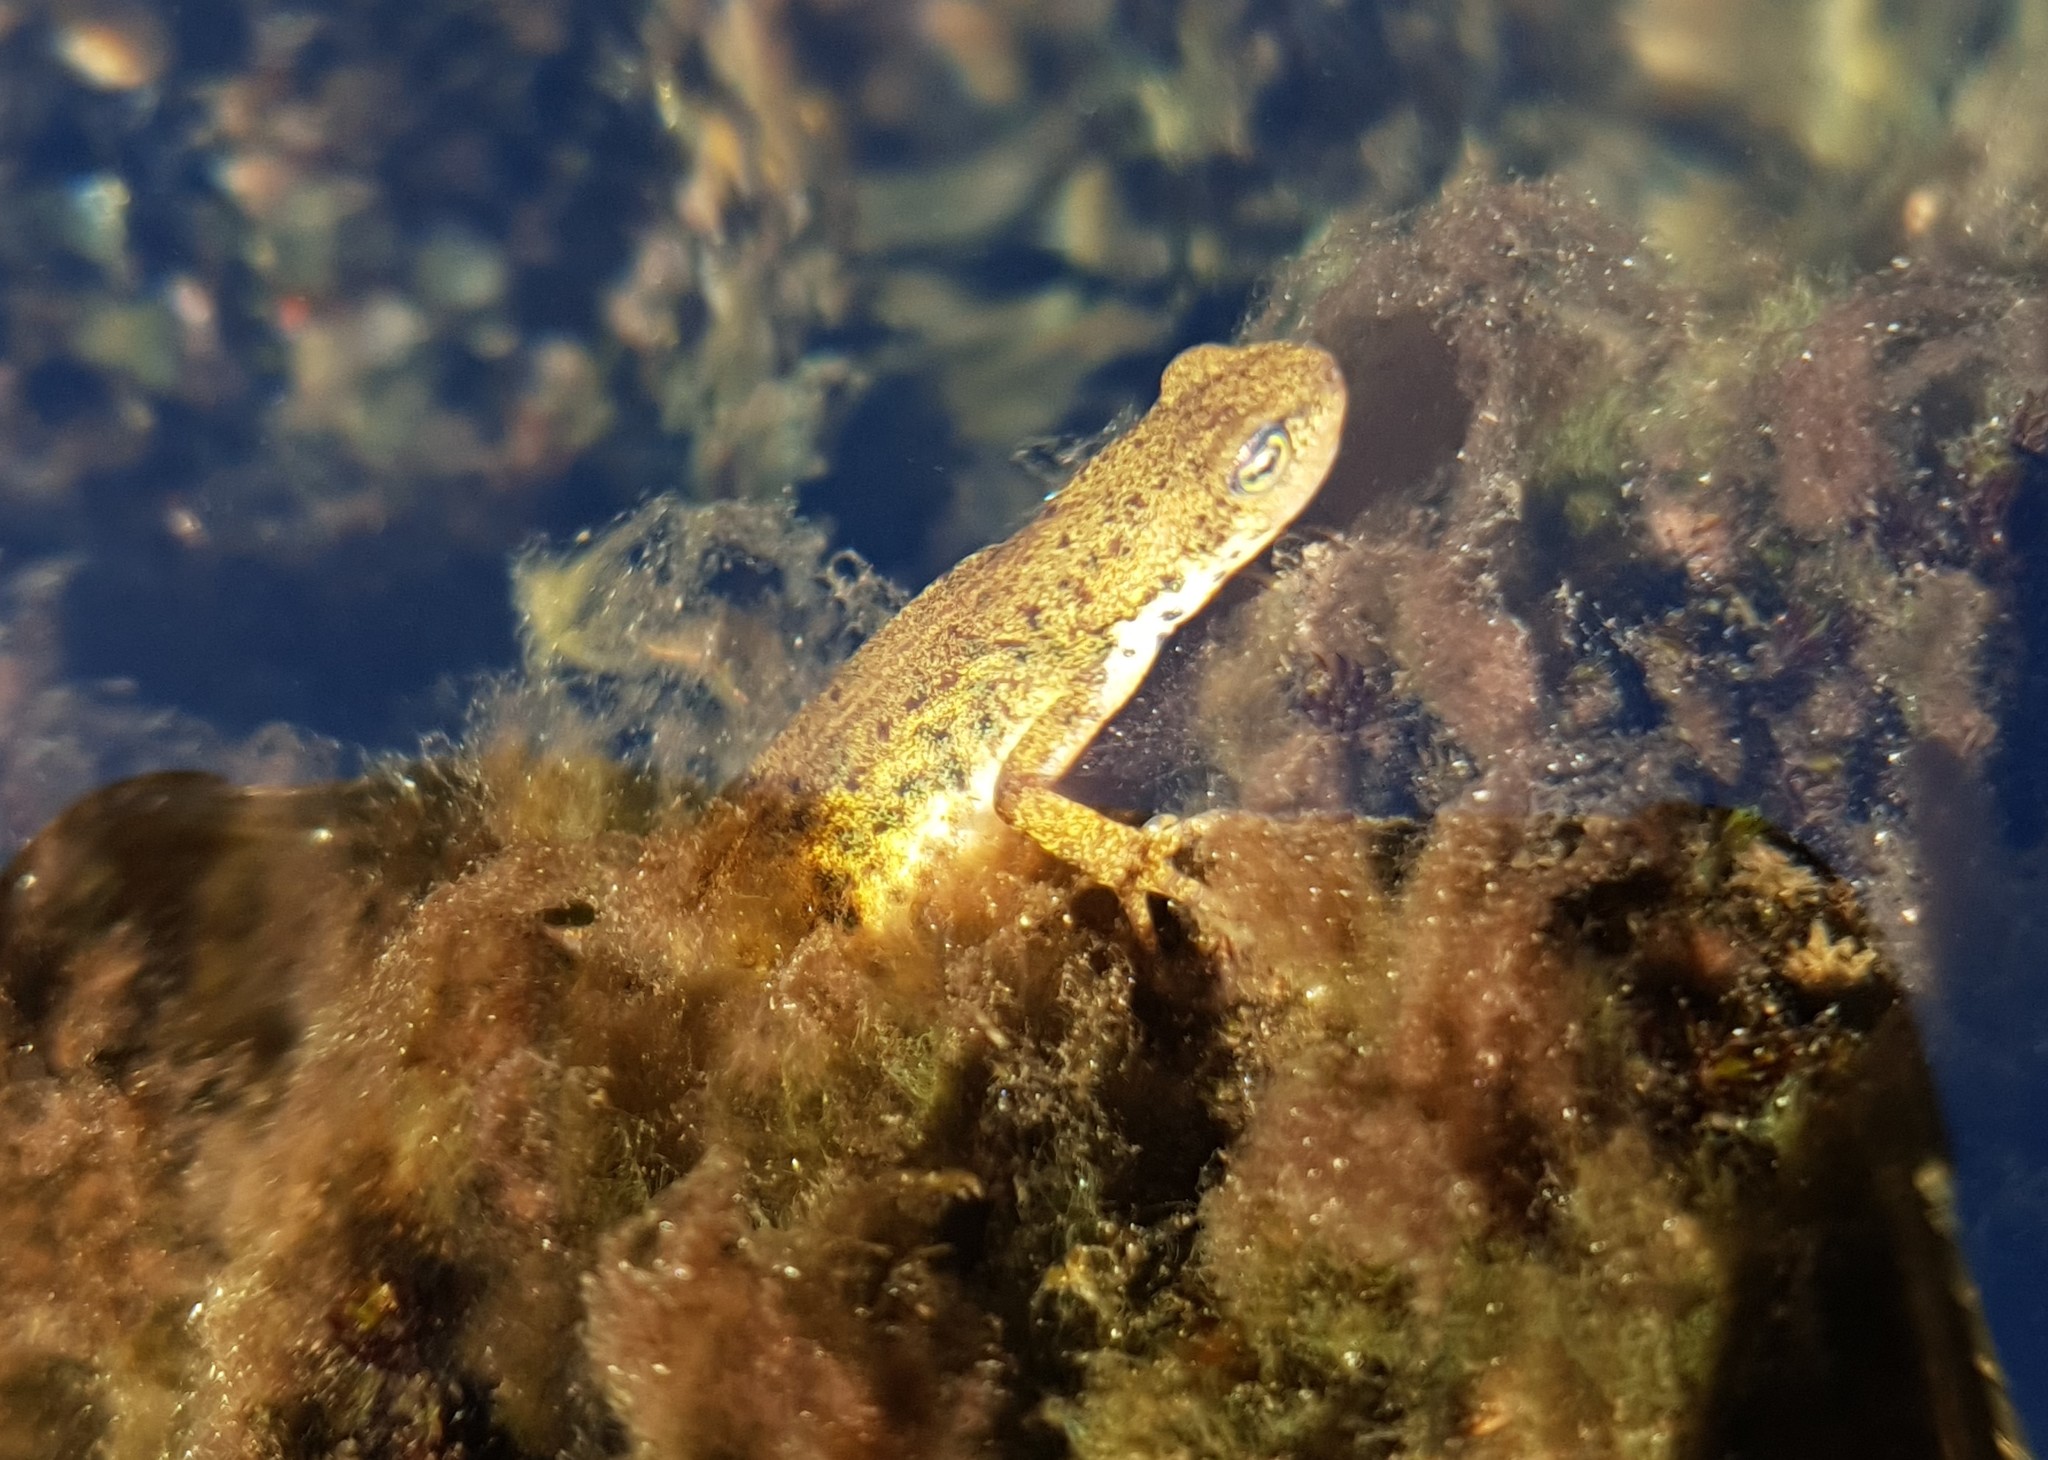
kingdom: Animalia
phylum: Chordata
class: Amphibia
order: Caudata
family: Salamandridae
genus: Lissotriton
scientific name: Lissotriton boscai
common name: Bosca's newt
